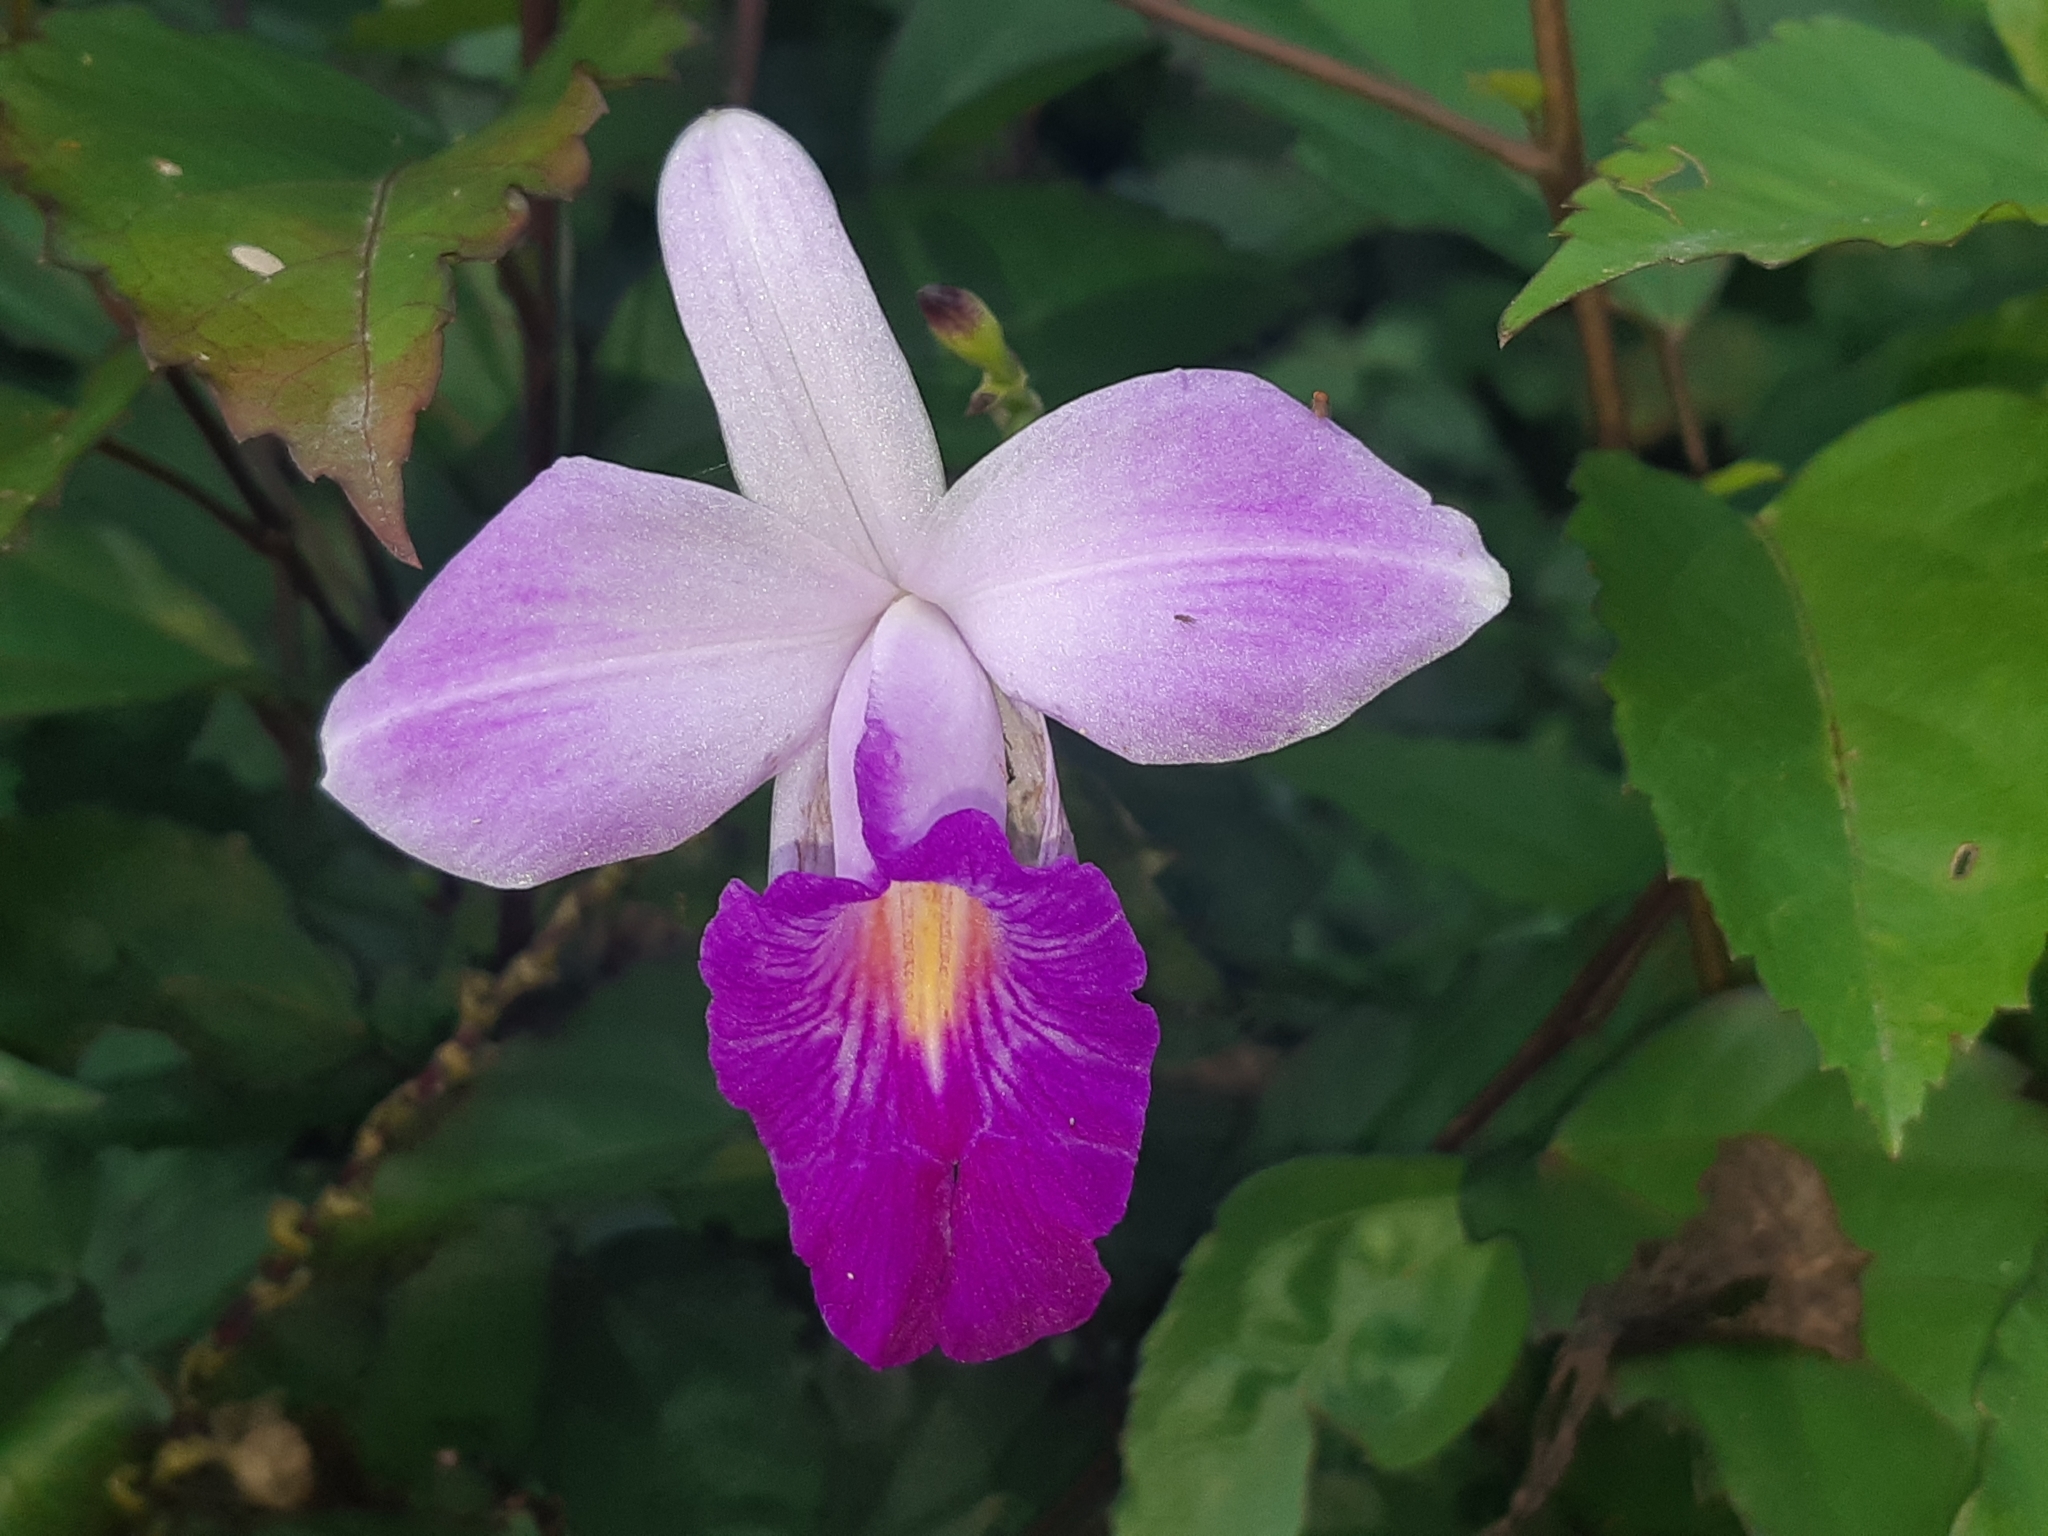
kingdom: Plantae
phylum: Tracheophyta
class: Liliopsida
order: Asparagales
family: Orchidaceae
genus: Arundina
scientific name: Arundina graminifolia
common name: Bamboo orchid
